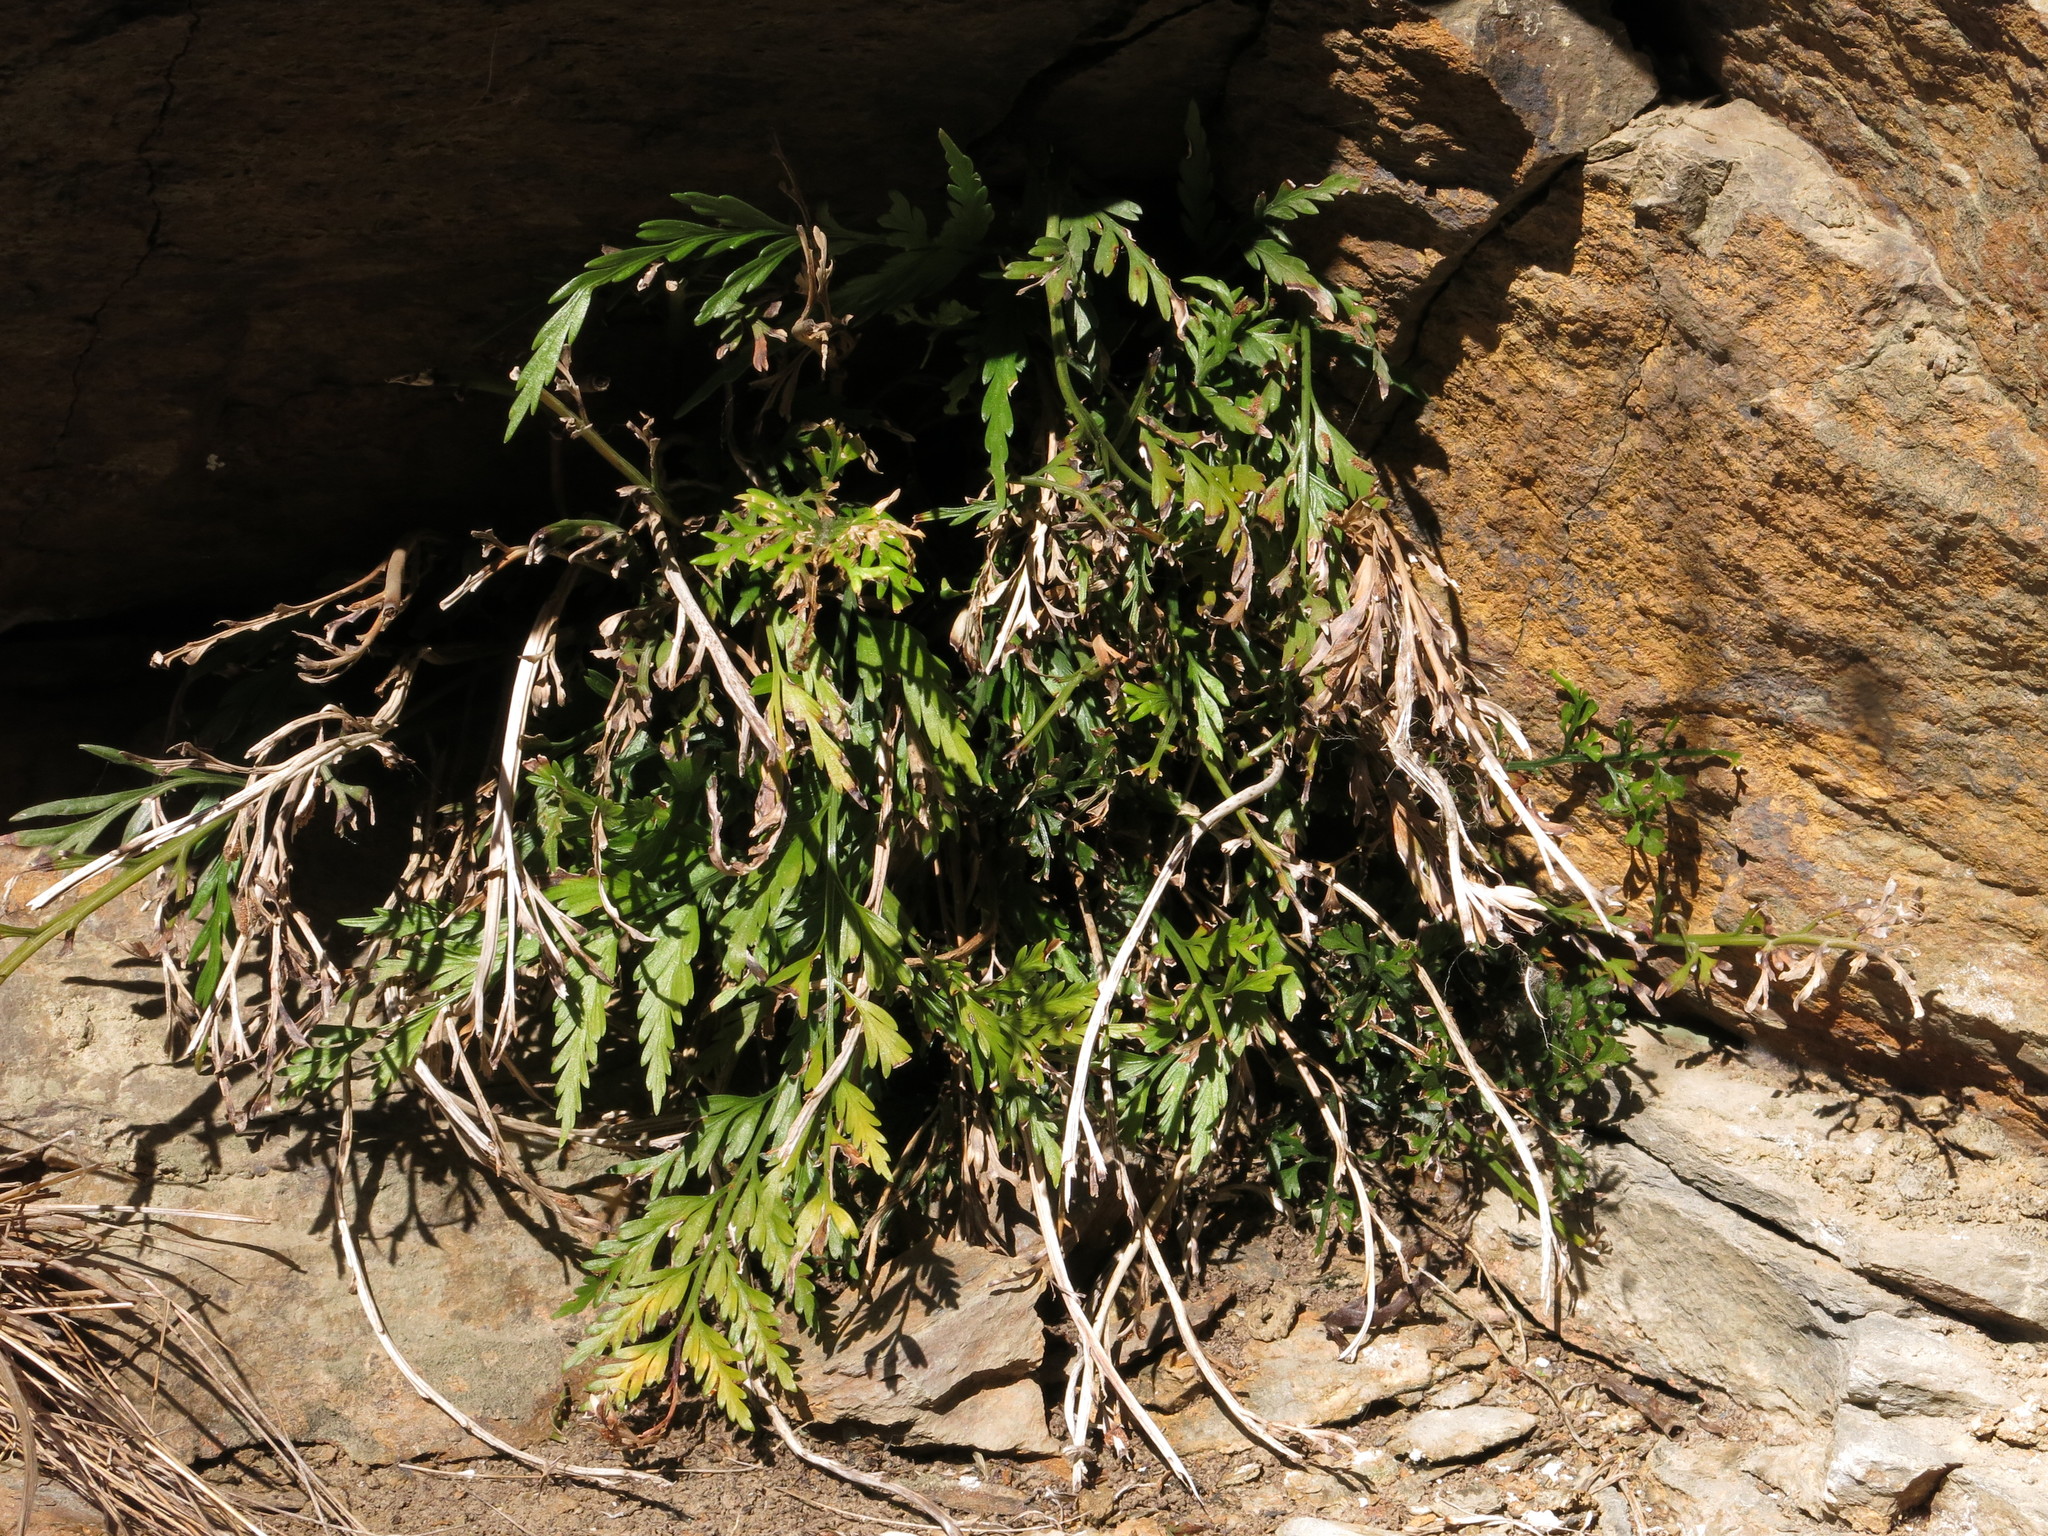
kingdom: Plantae
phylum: Tracheophyta
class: Polypodiopsida
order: Polypodiales
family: Aspleniaceae
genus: Asplenium
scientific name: Asplenium appendiculatum
